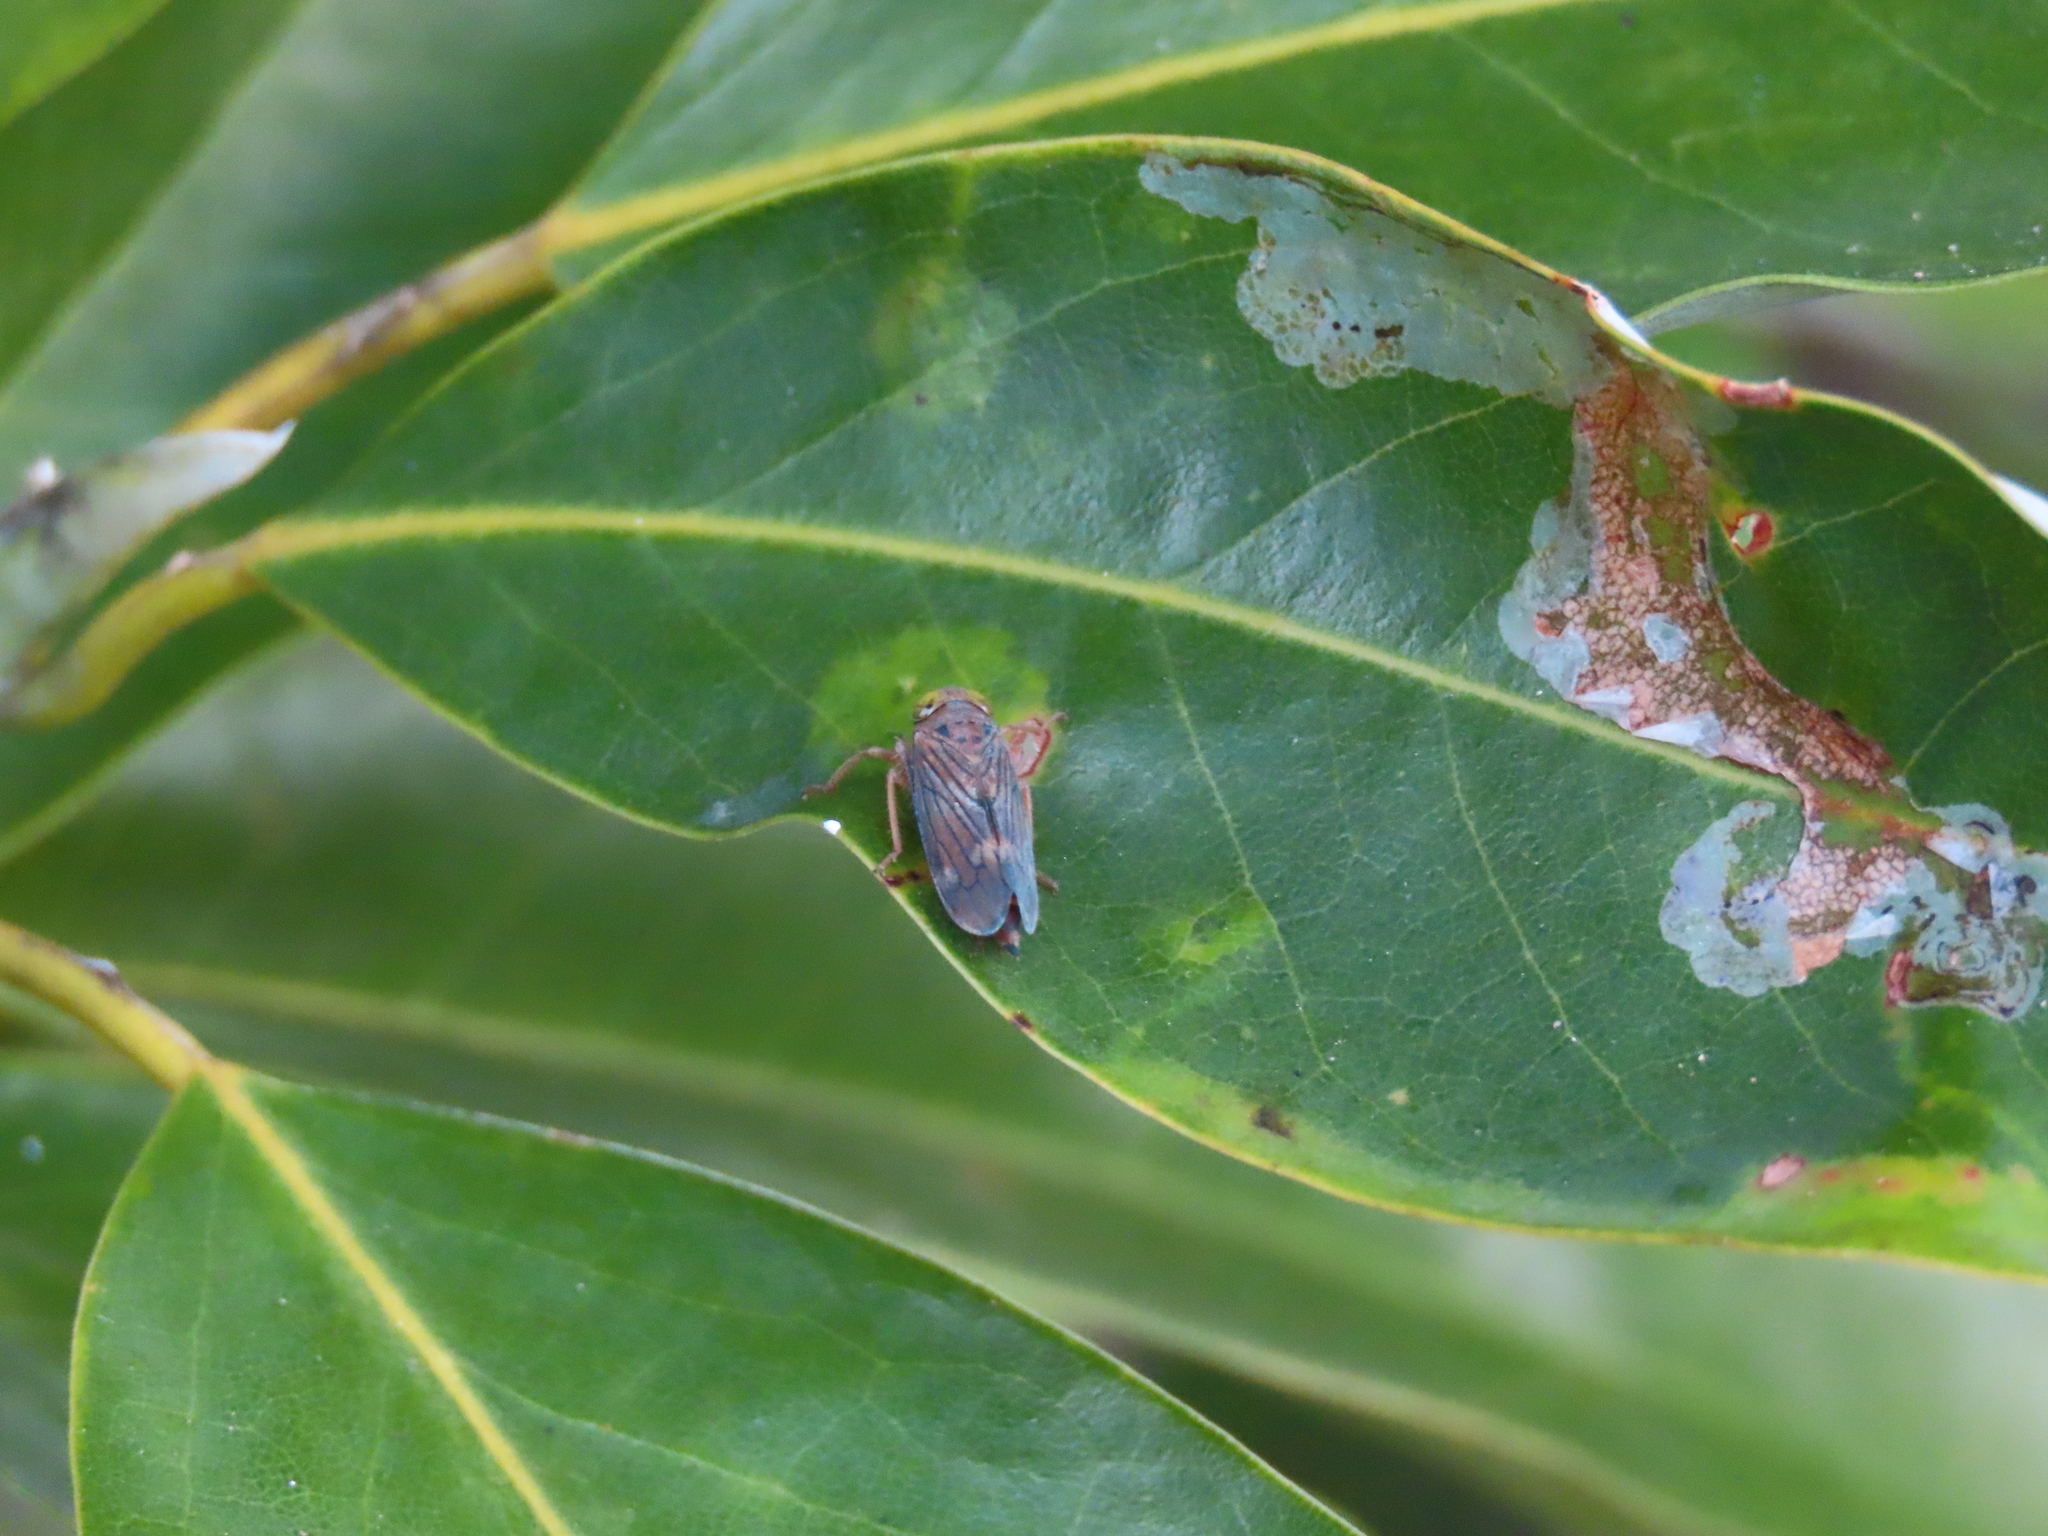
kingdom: Animalia
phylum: Arthropoda
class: Insecta
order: Hemiptera
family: Cicadellidae
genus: Jikradia
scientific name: Jikradia olitoria
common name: Coppery leafhopper
